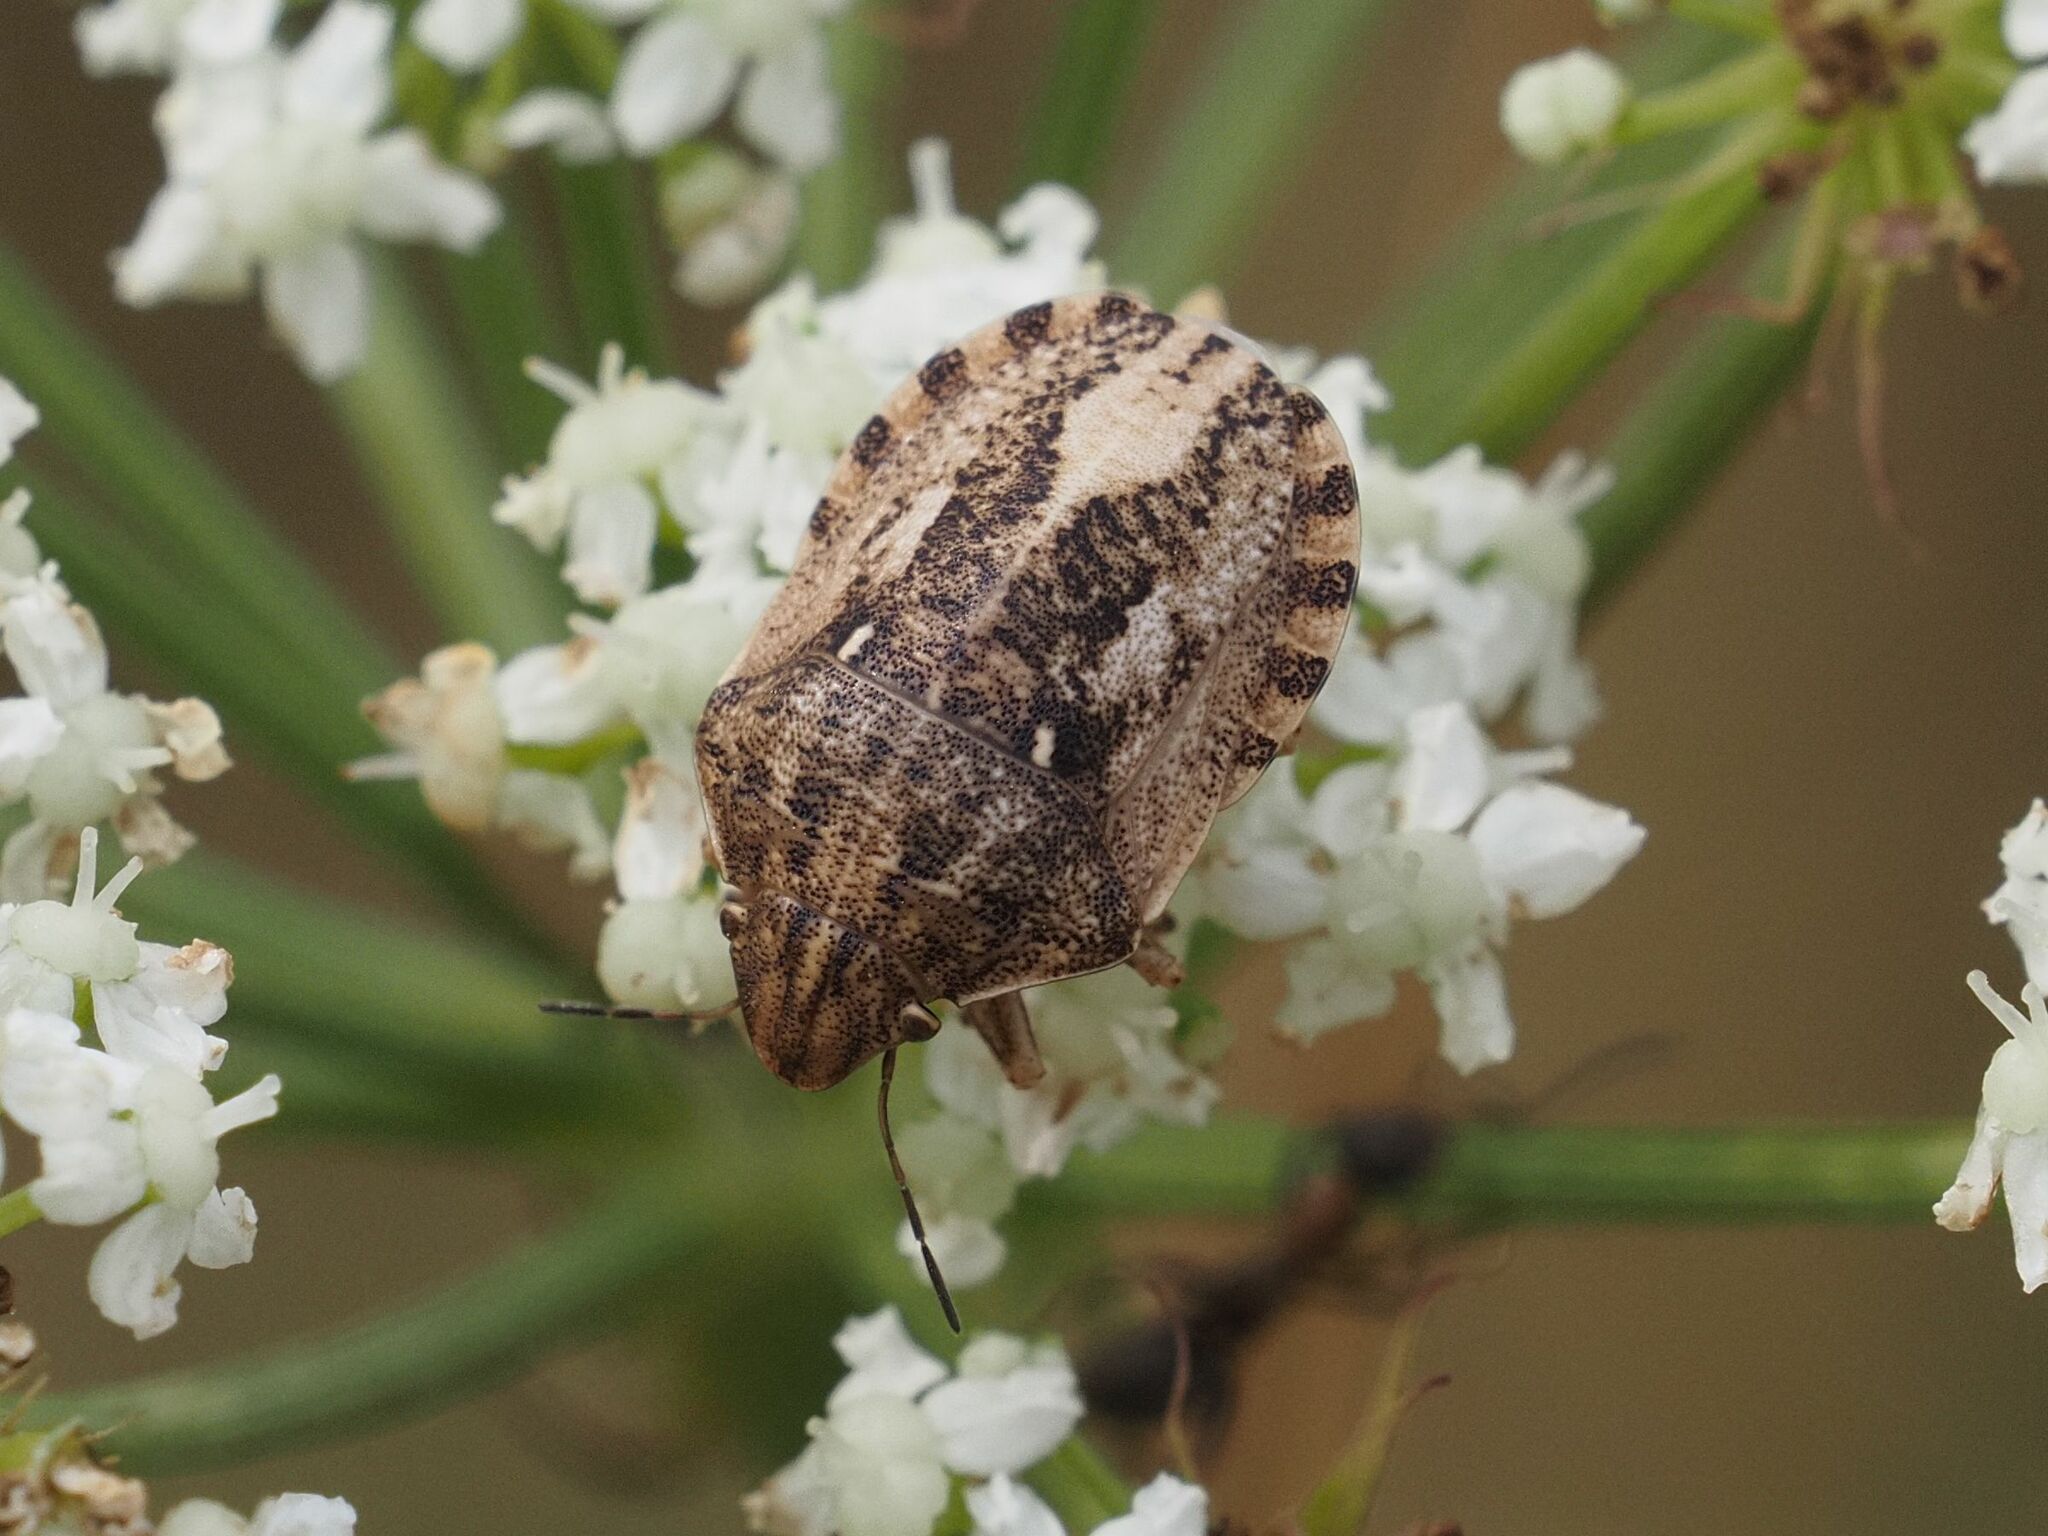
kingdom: Animalia
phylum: Arthropoda
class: Insecta
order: Hemiptera
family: Scutelleridae
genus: Eurygaster
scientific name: Eurygaster testudinaria
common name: Tortoise bug
